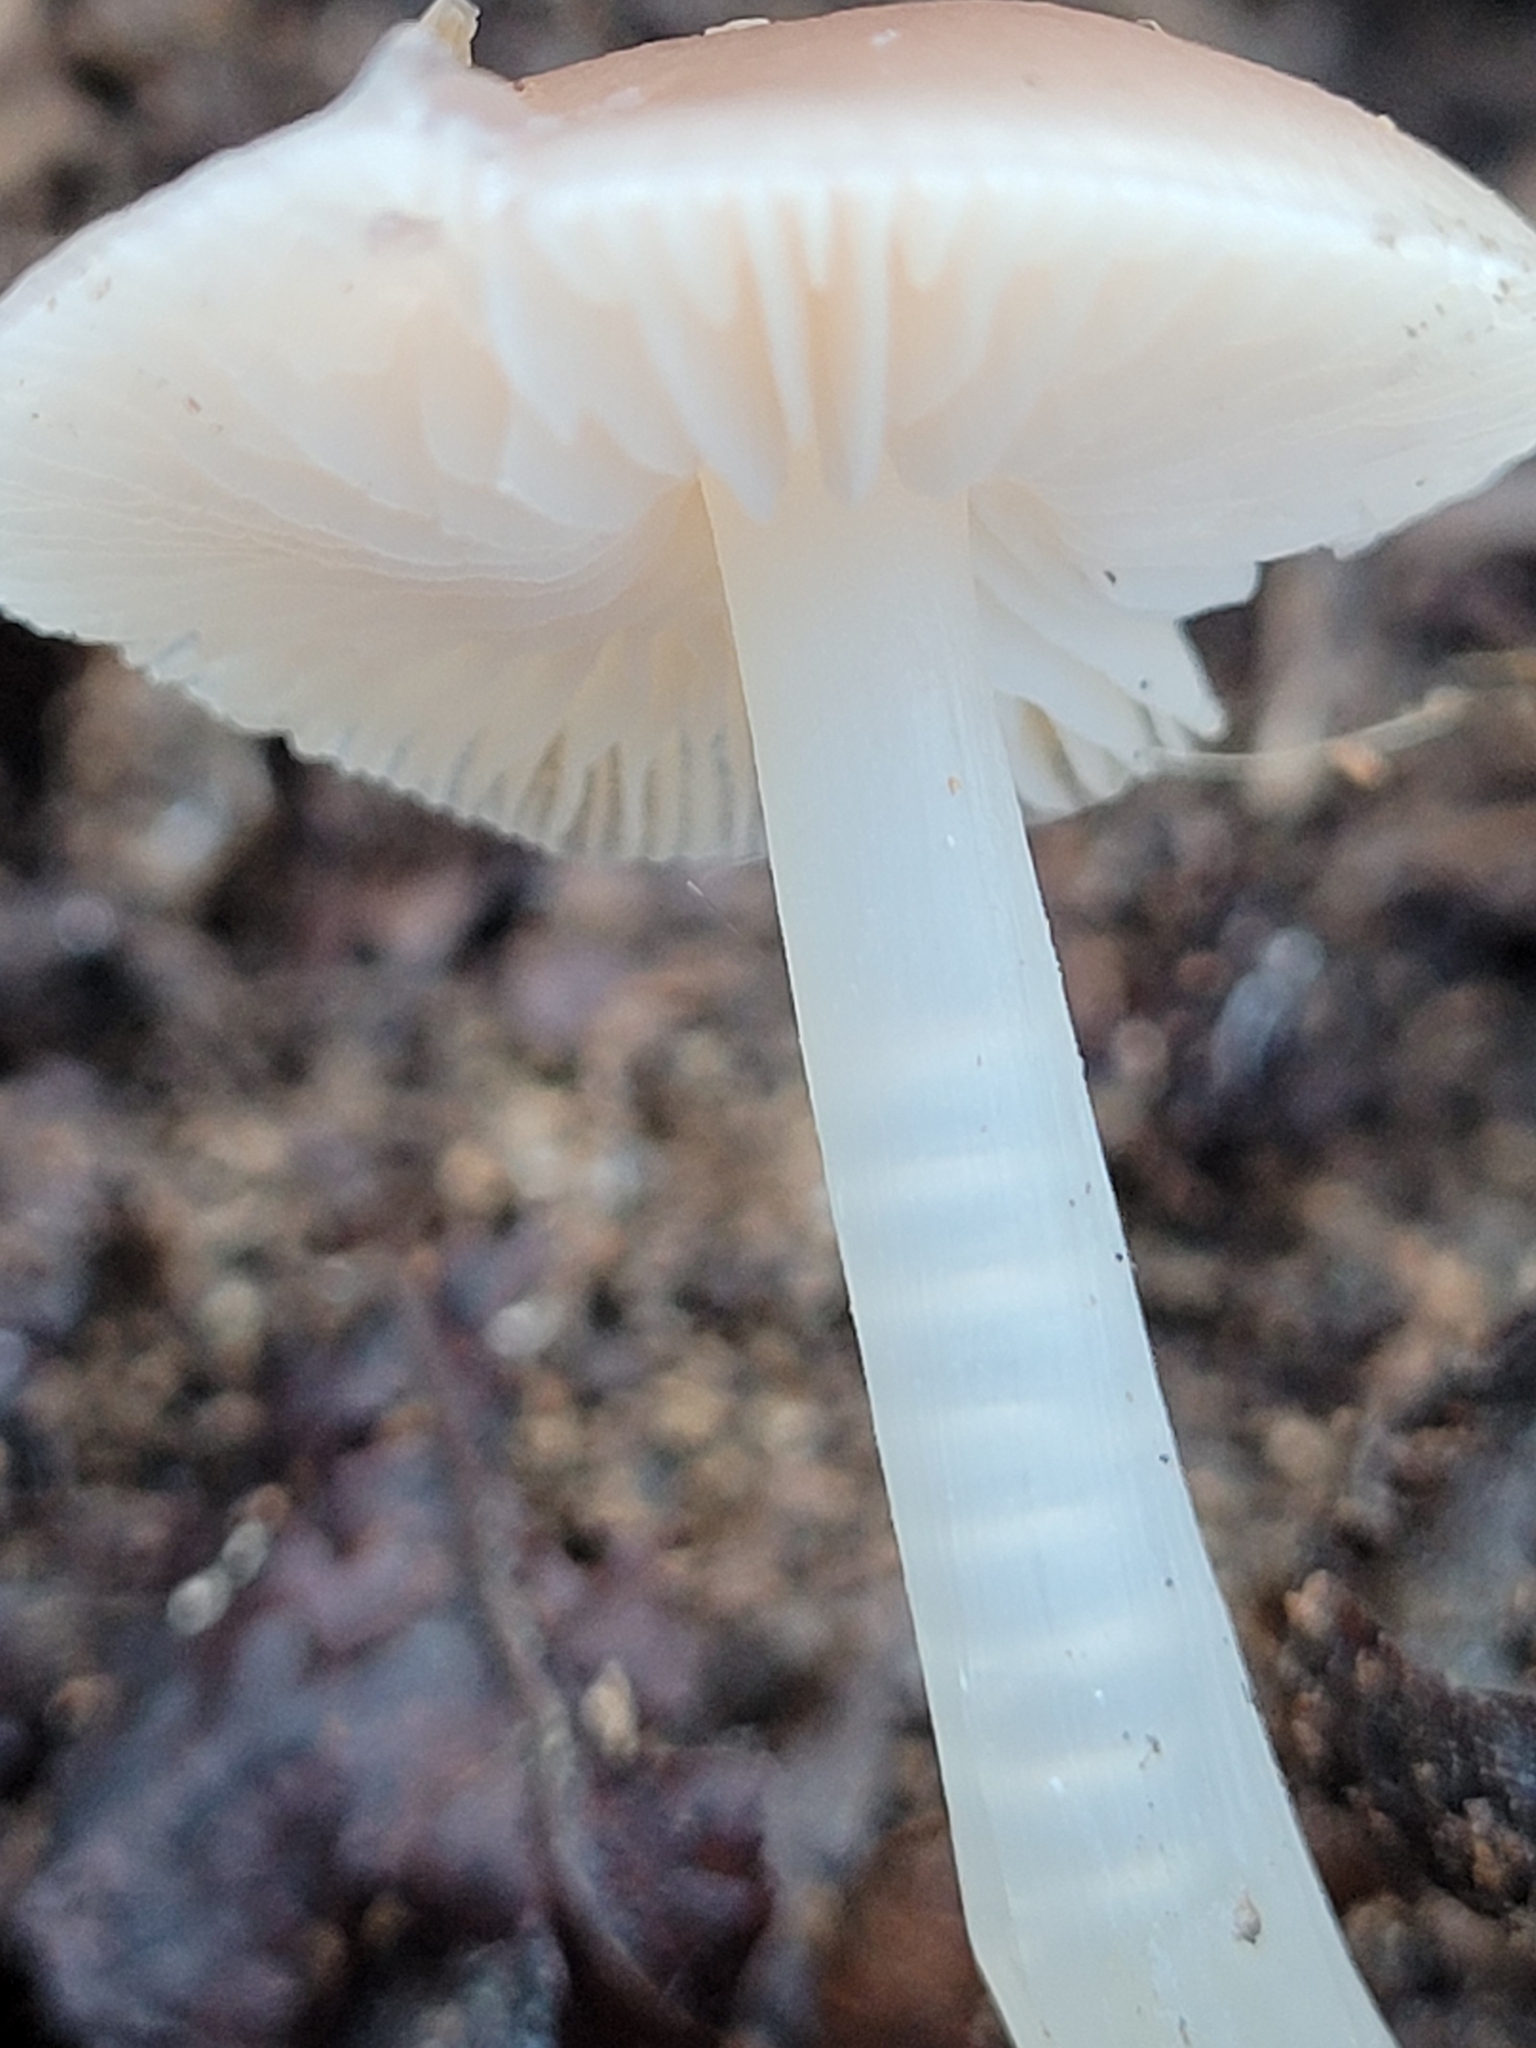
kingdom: Fungi
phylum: Basidiomycota
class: Agaricomycetes
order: Agaricales
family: Mycenaceae
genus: Mycena
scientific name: Mycena pura
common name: Lilac bonnet
